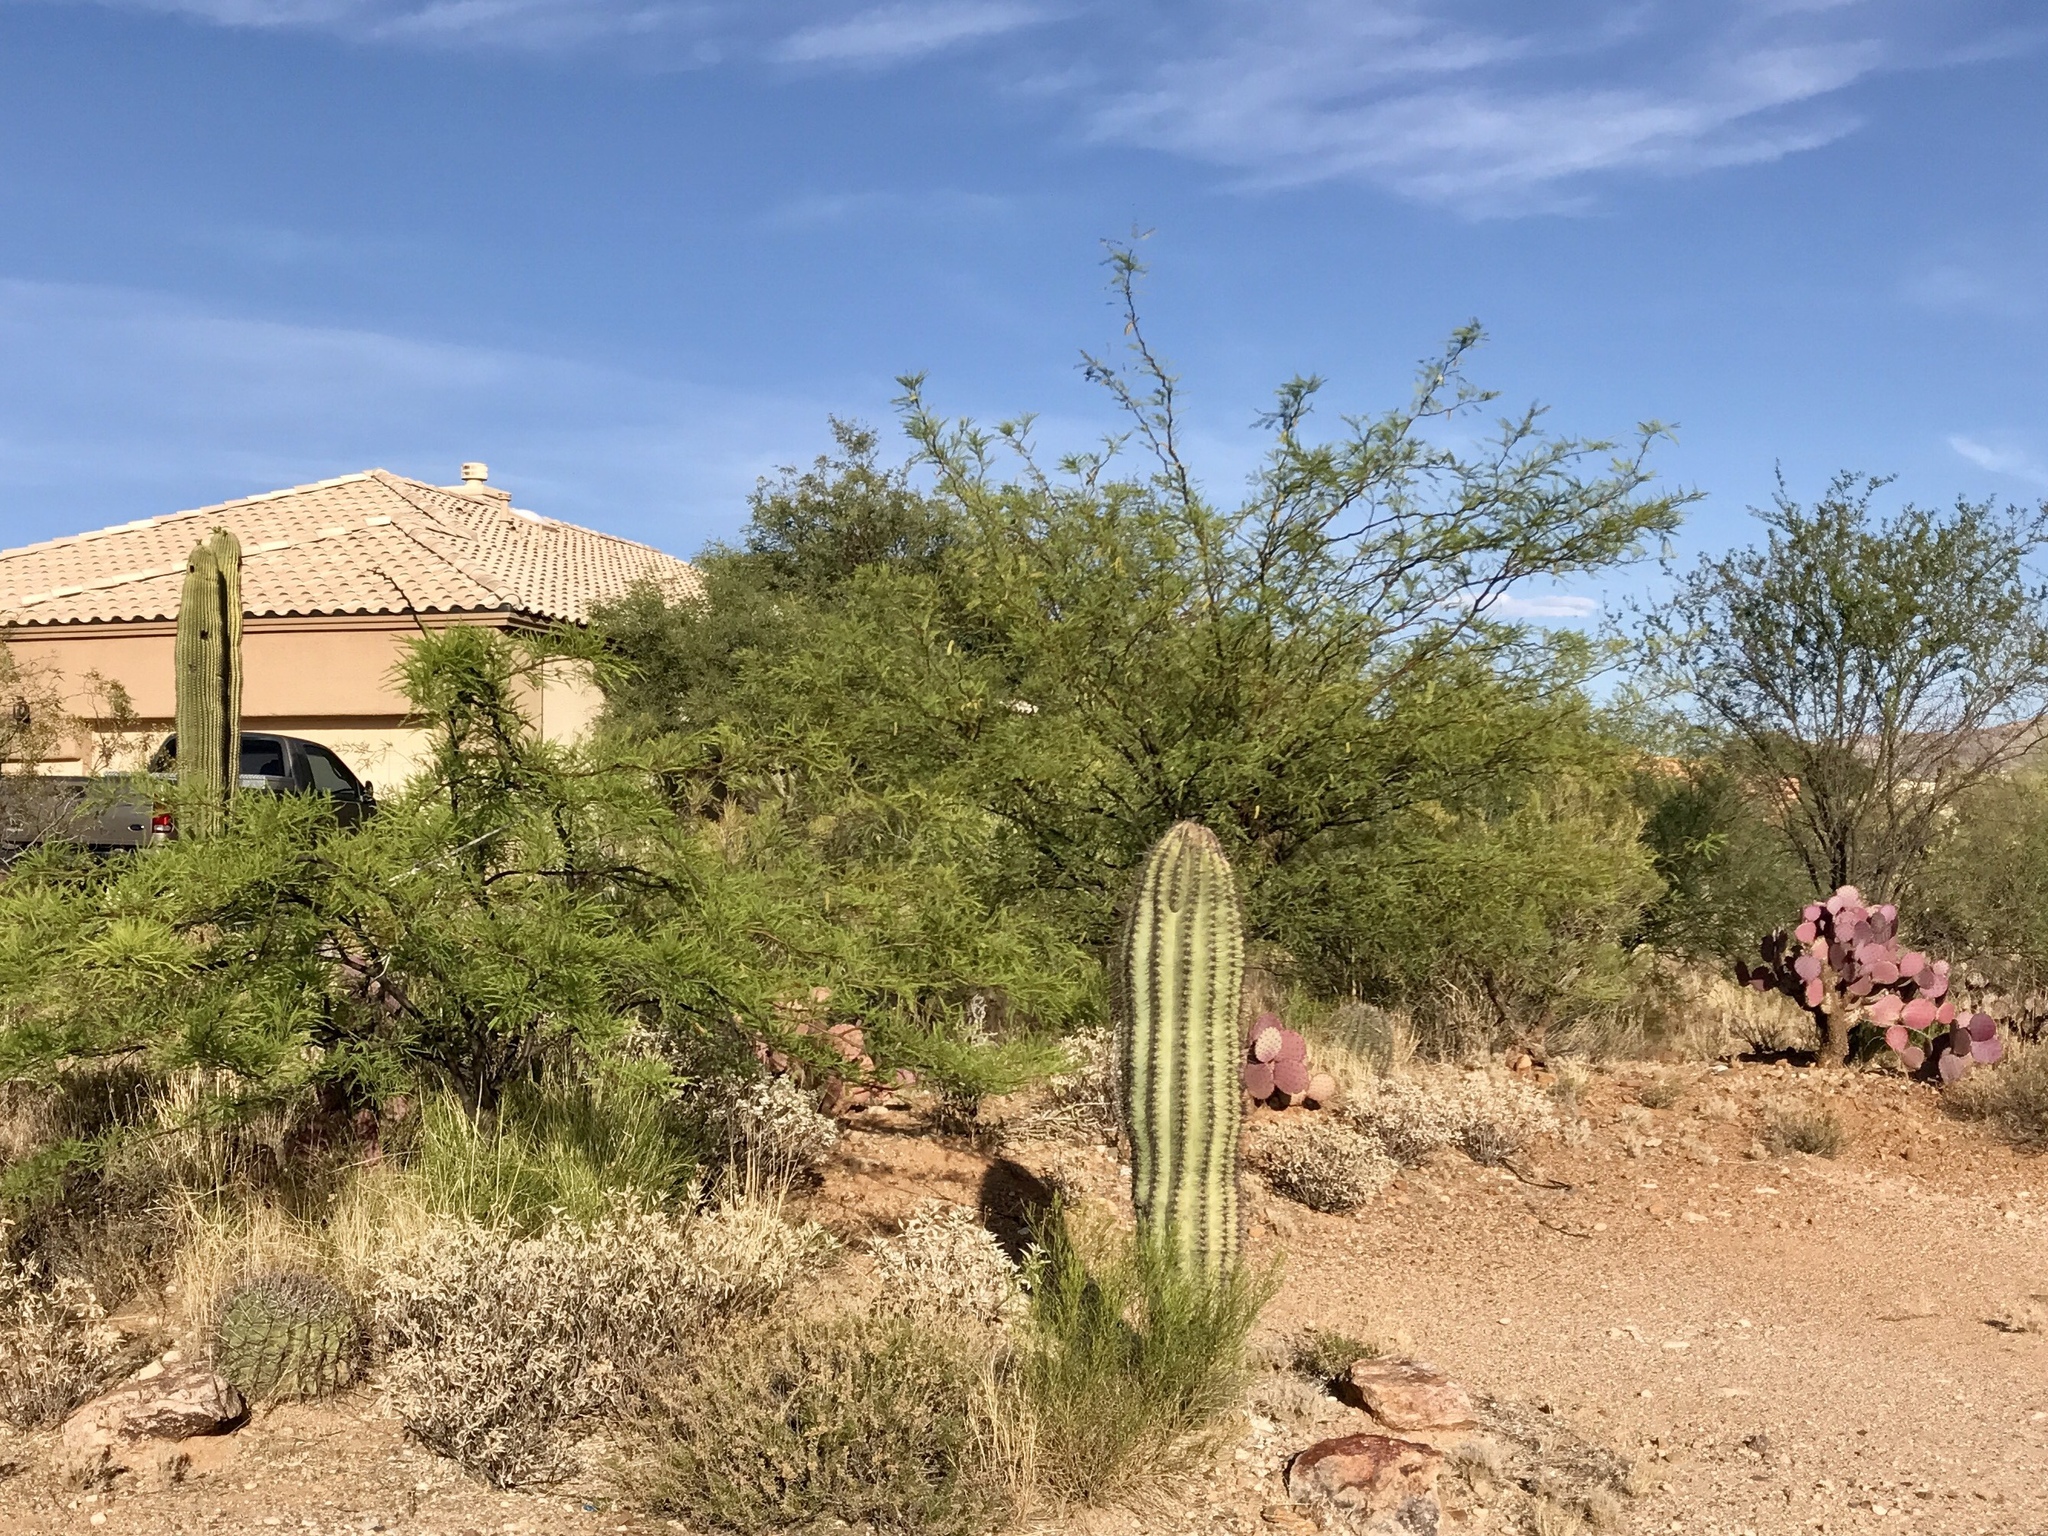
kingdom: Plantae
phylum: Tracheophyta
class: Magnoliopsida
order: Caryophyllales
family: Cactaceae
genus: Carnegiea
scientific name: Carnegiea gigantea
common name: Saguaro
